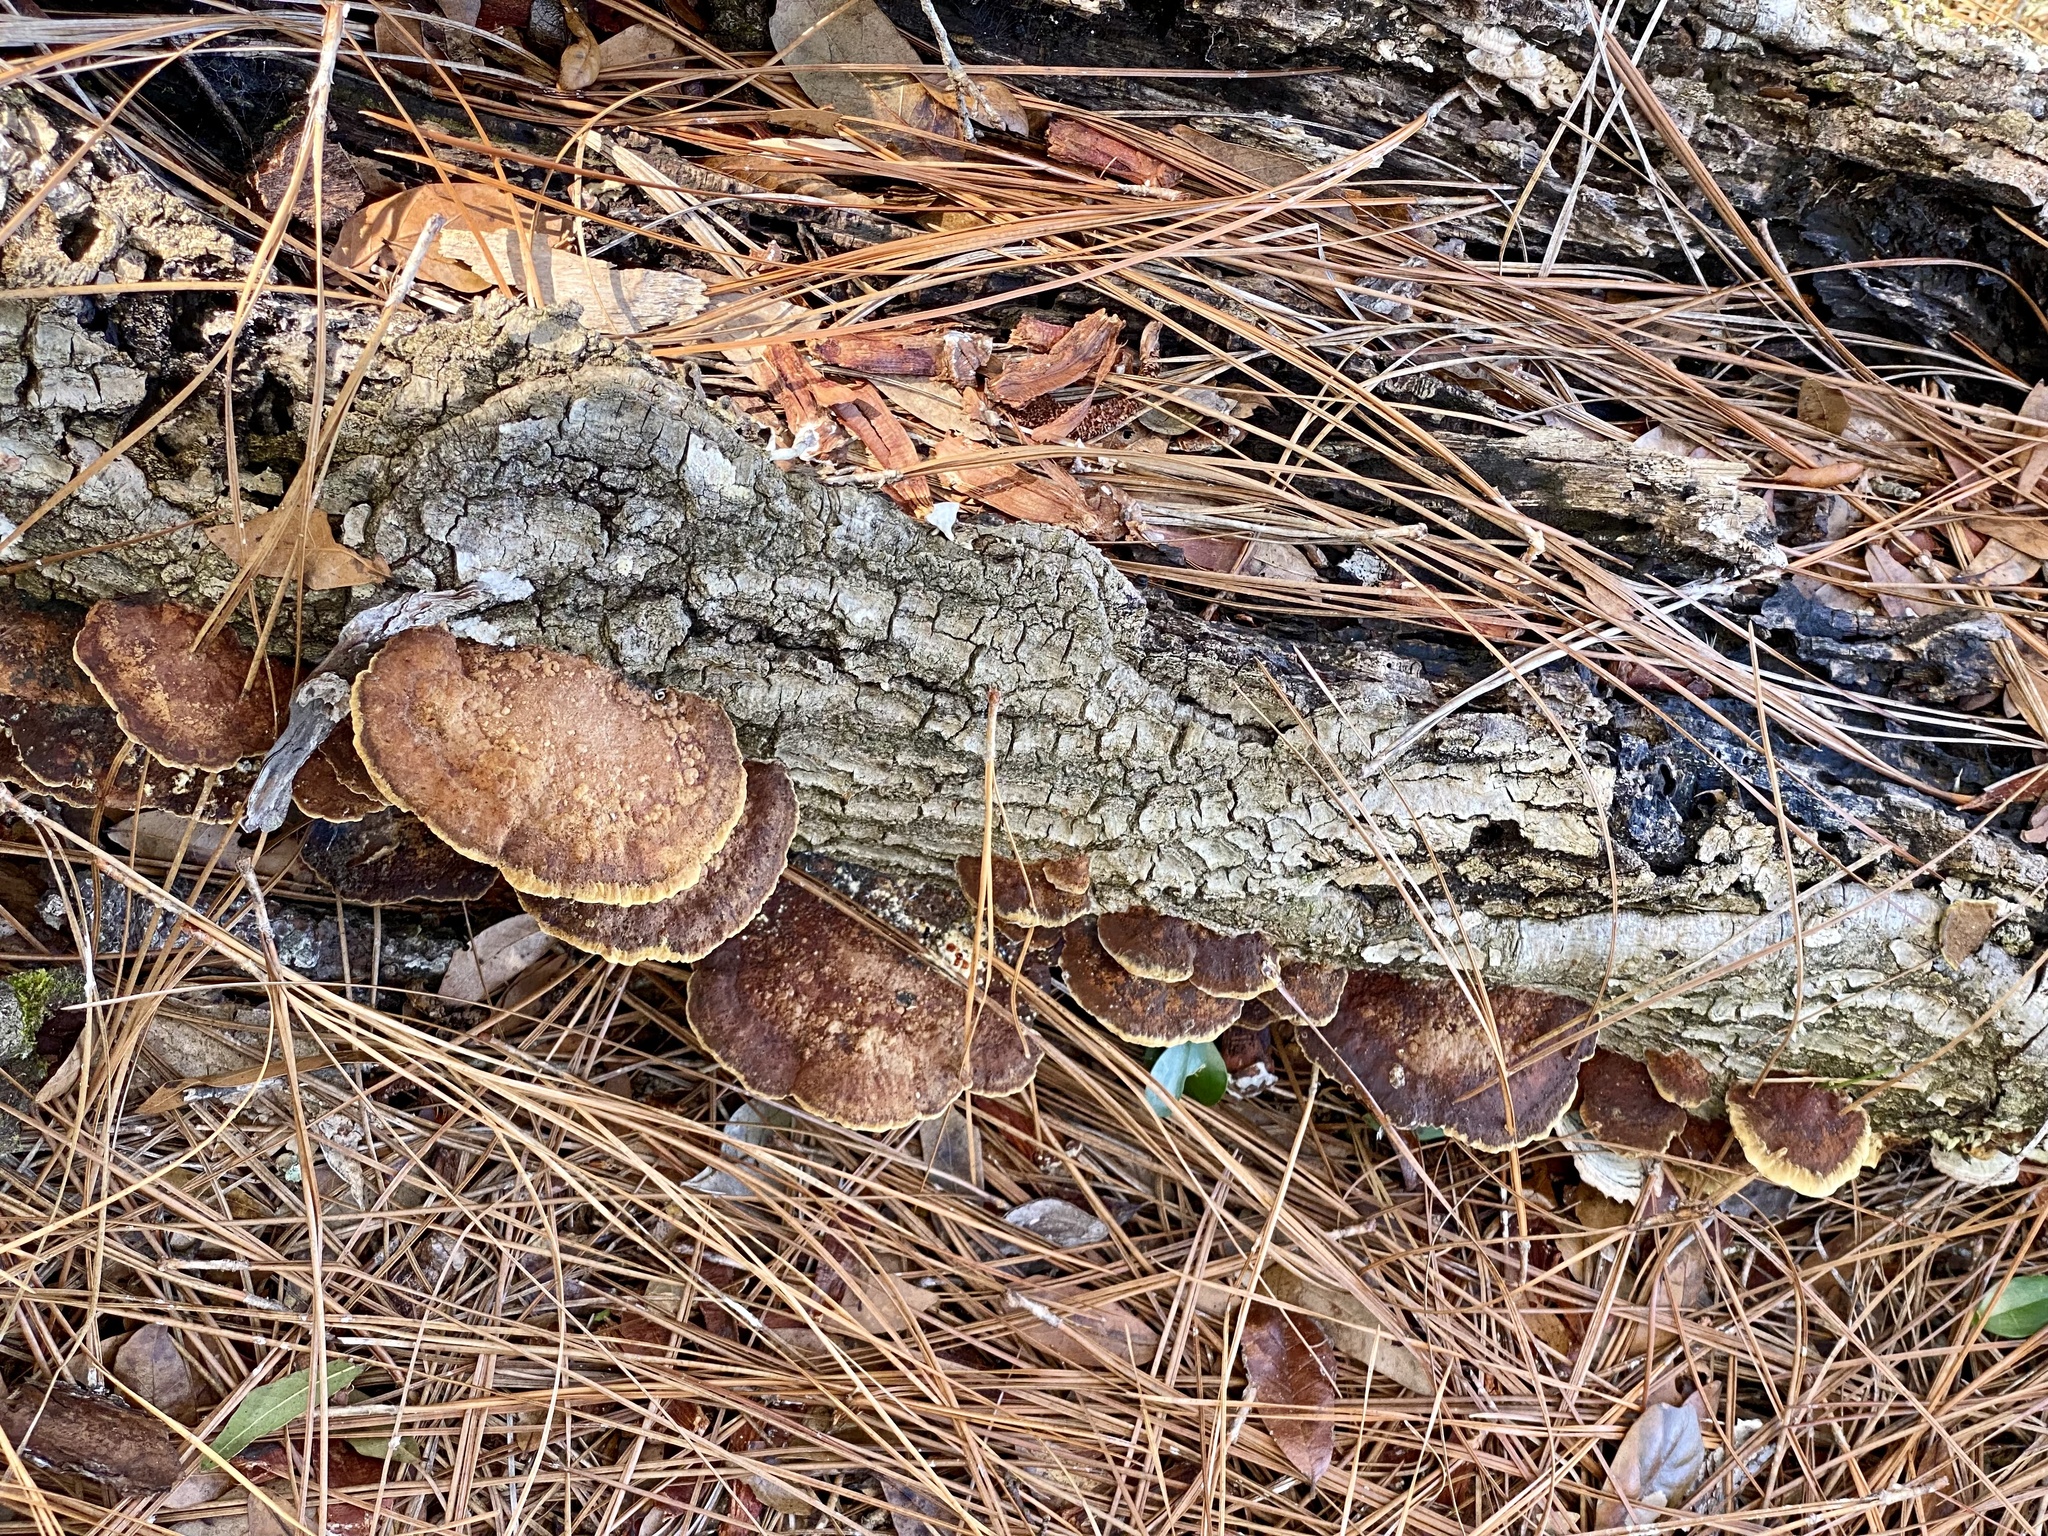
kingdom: Fungi
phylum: Basidiomycota
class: Agaricomycetes
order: Hymenochaetales
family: Hymenochaetaceae
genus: Phellinus
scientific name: Phellinus gilvus
